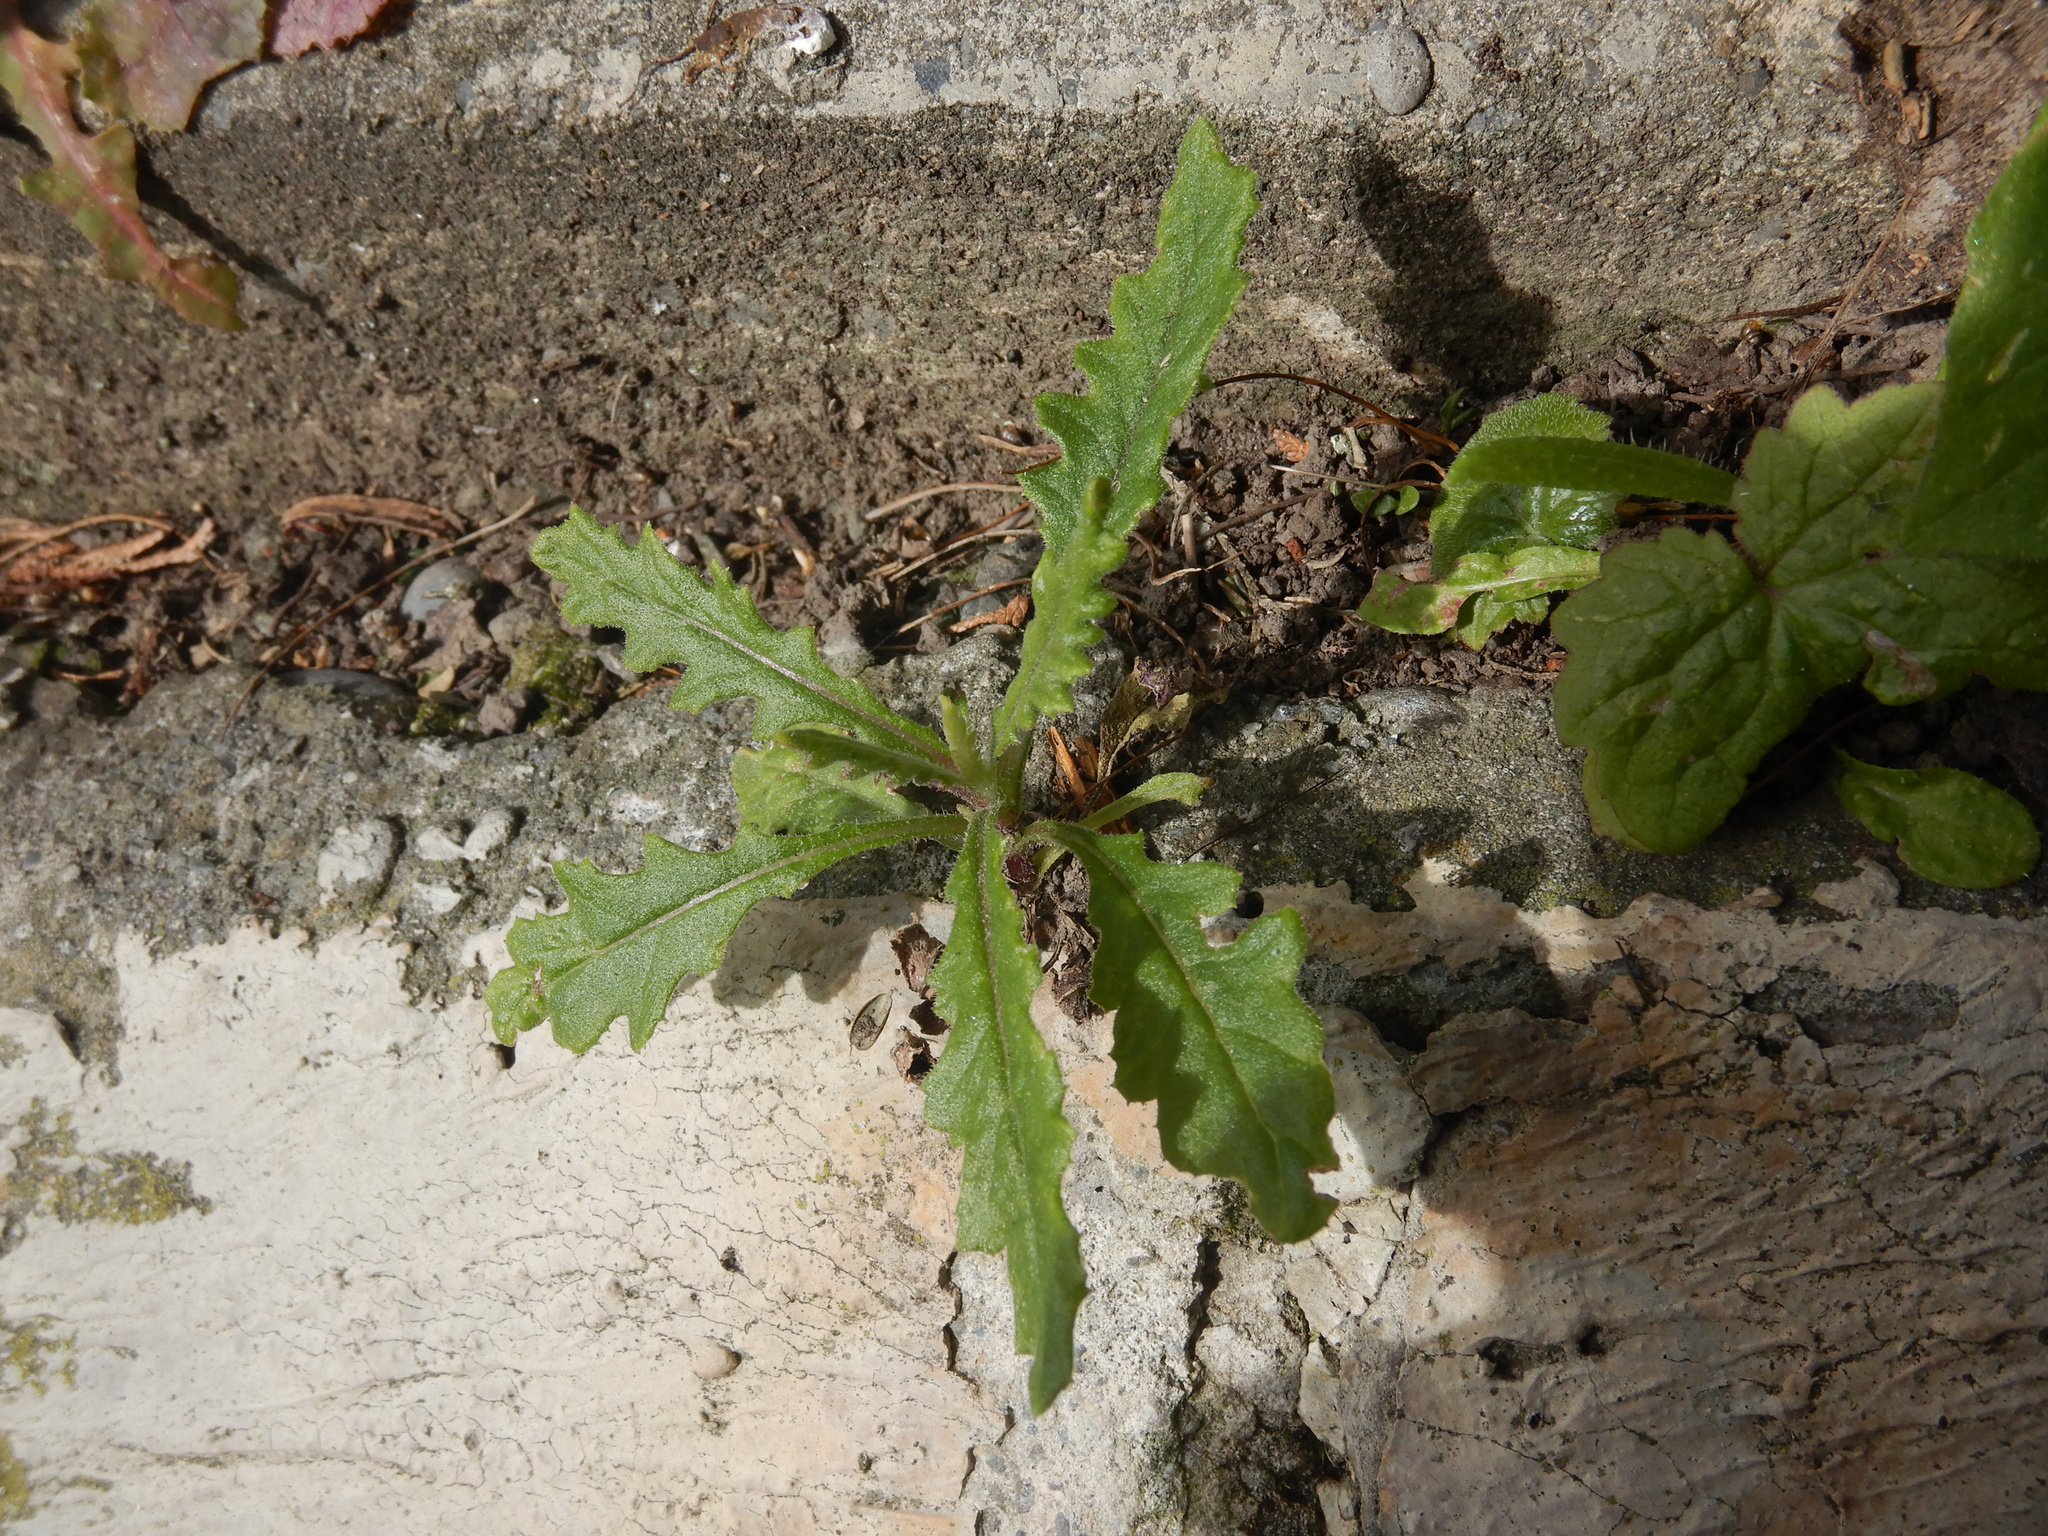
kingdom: Plantae
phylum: Tracheophyta
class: Magnoliopsida
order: Asterales
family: Asteraceae
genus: Senecio
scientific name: Senecio hispidulus
